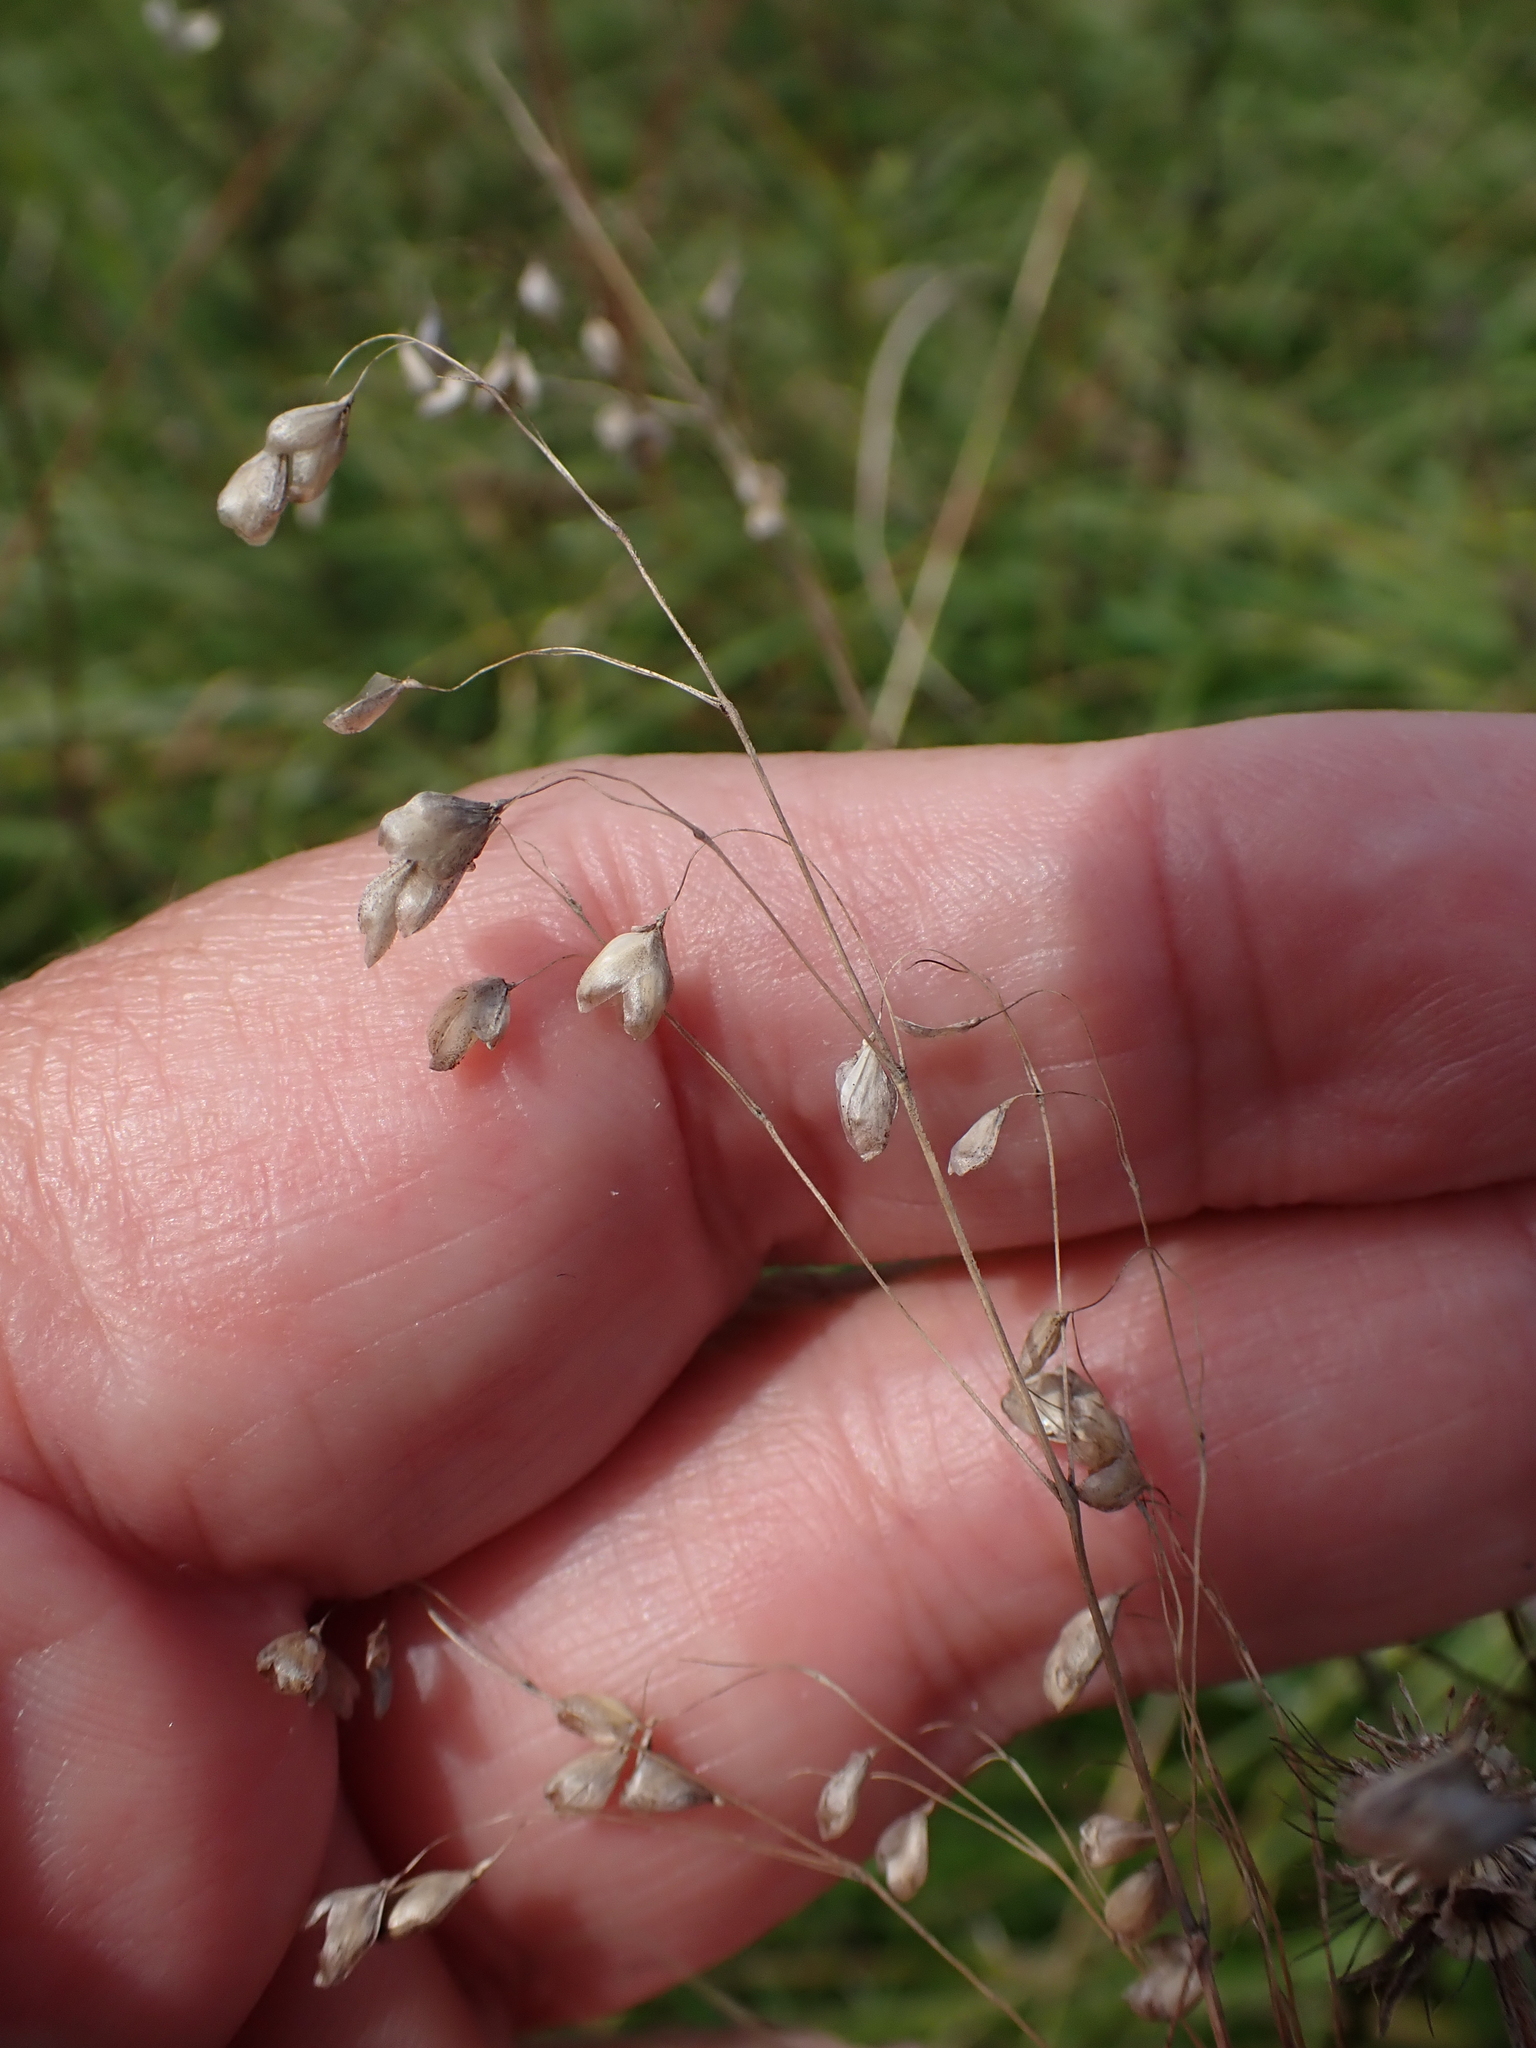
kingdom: Plantae
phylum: Tracheophyta
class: Liliopsida
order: Poales
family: Poaceae
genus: Briza
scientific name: Briza media
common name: Quaking grass
